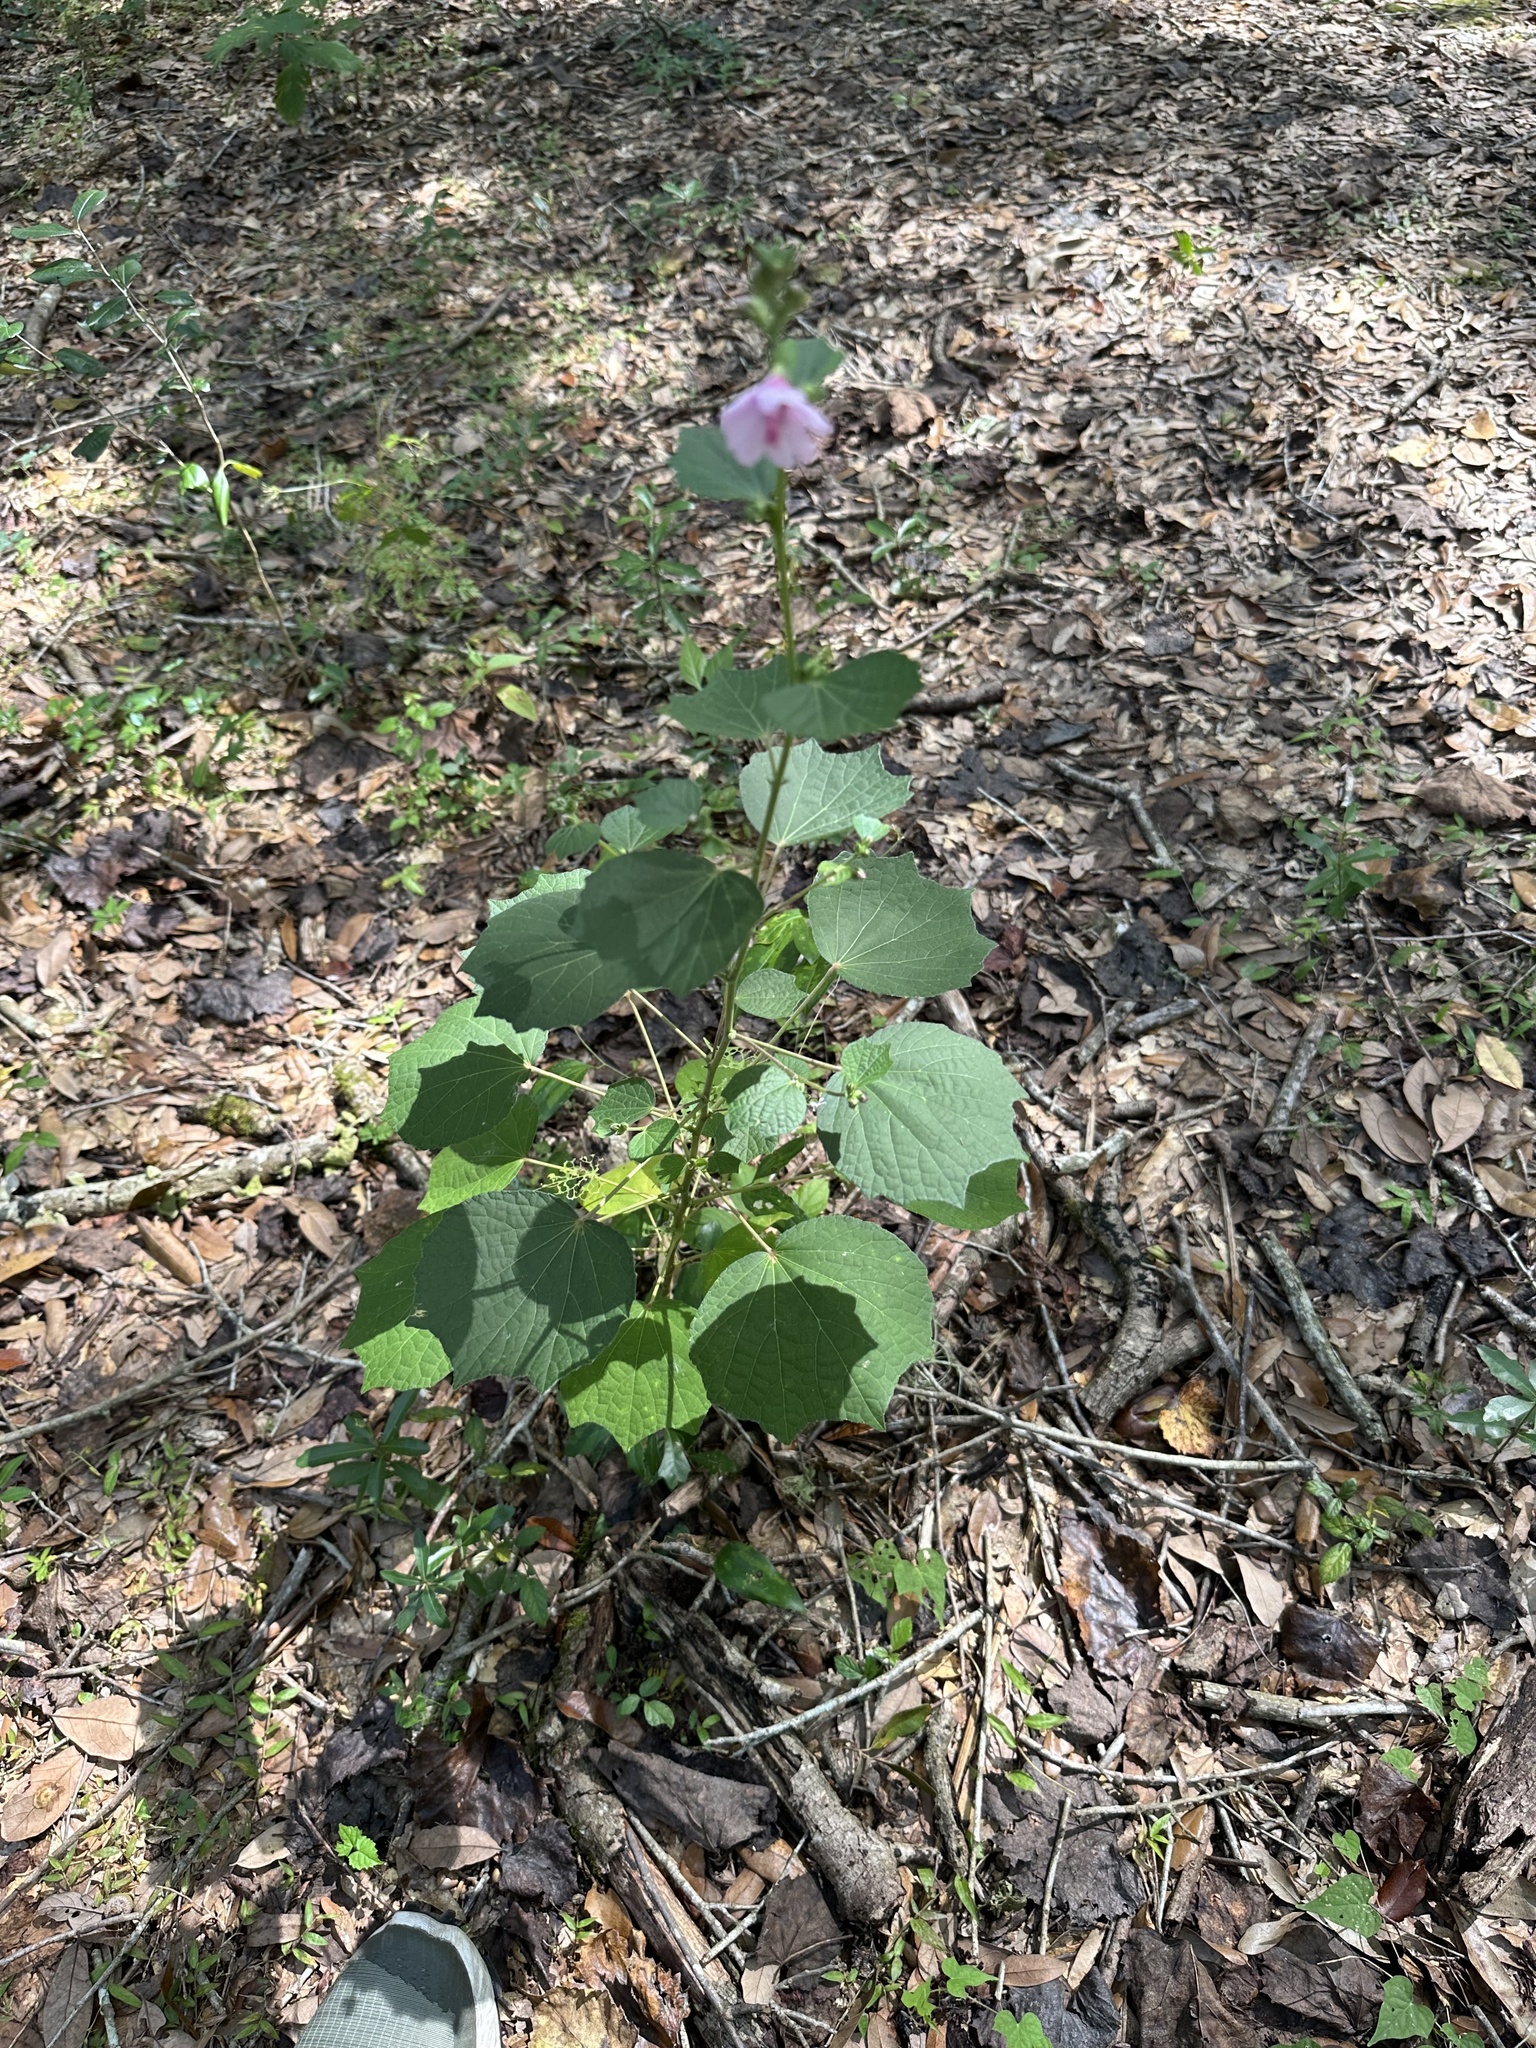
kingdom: Plantae
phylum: Tracheophyta
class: Magnoliopsida
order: Malvales
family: Malvaceae
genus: Urena
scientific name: Urena lobata
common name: Caesarweed
